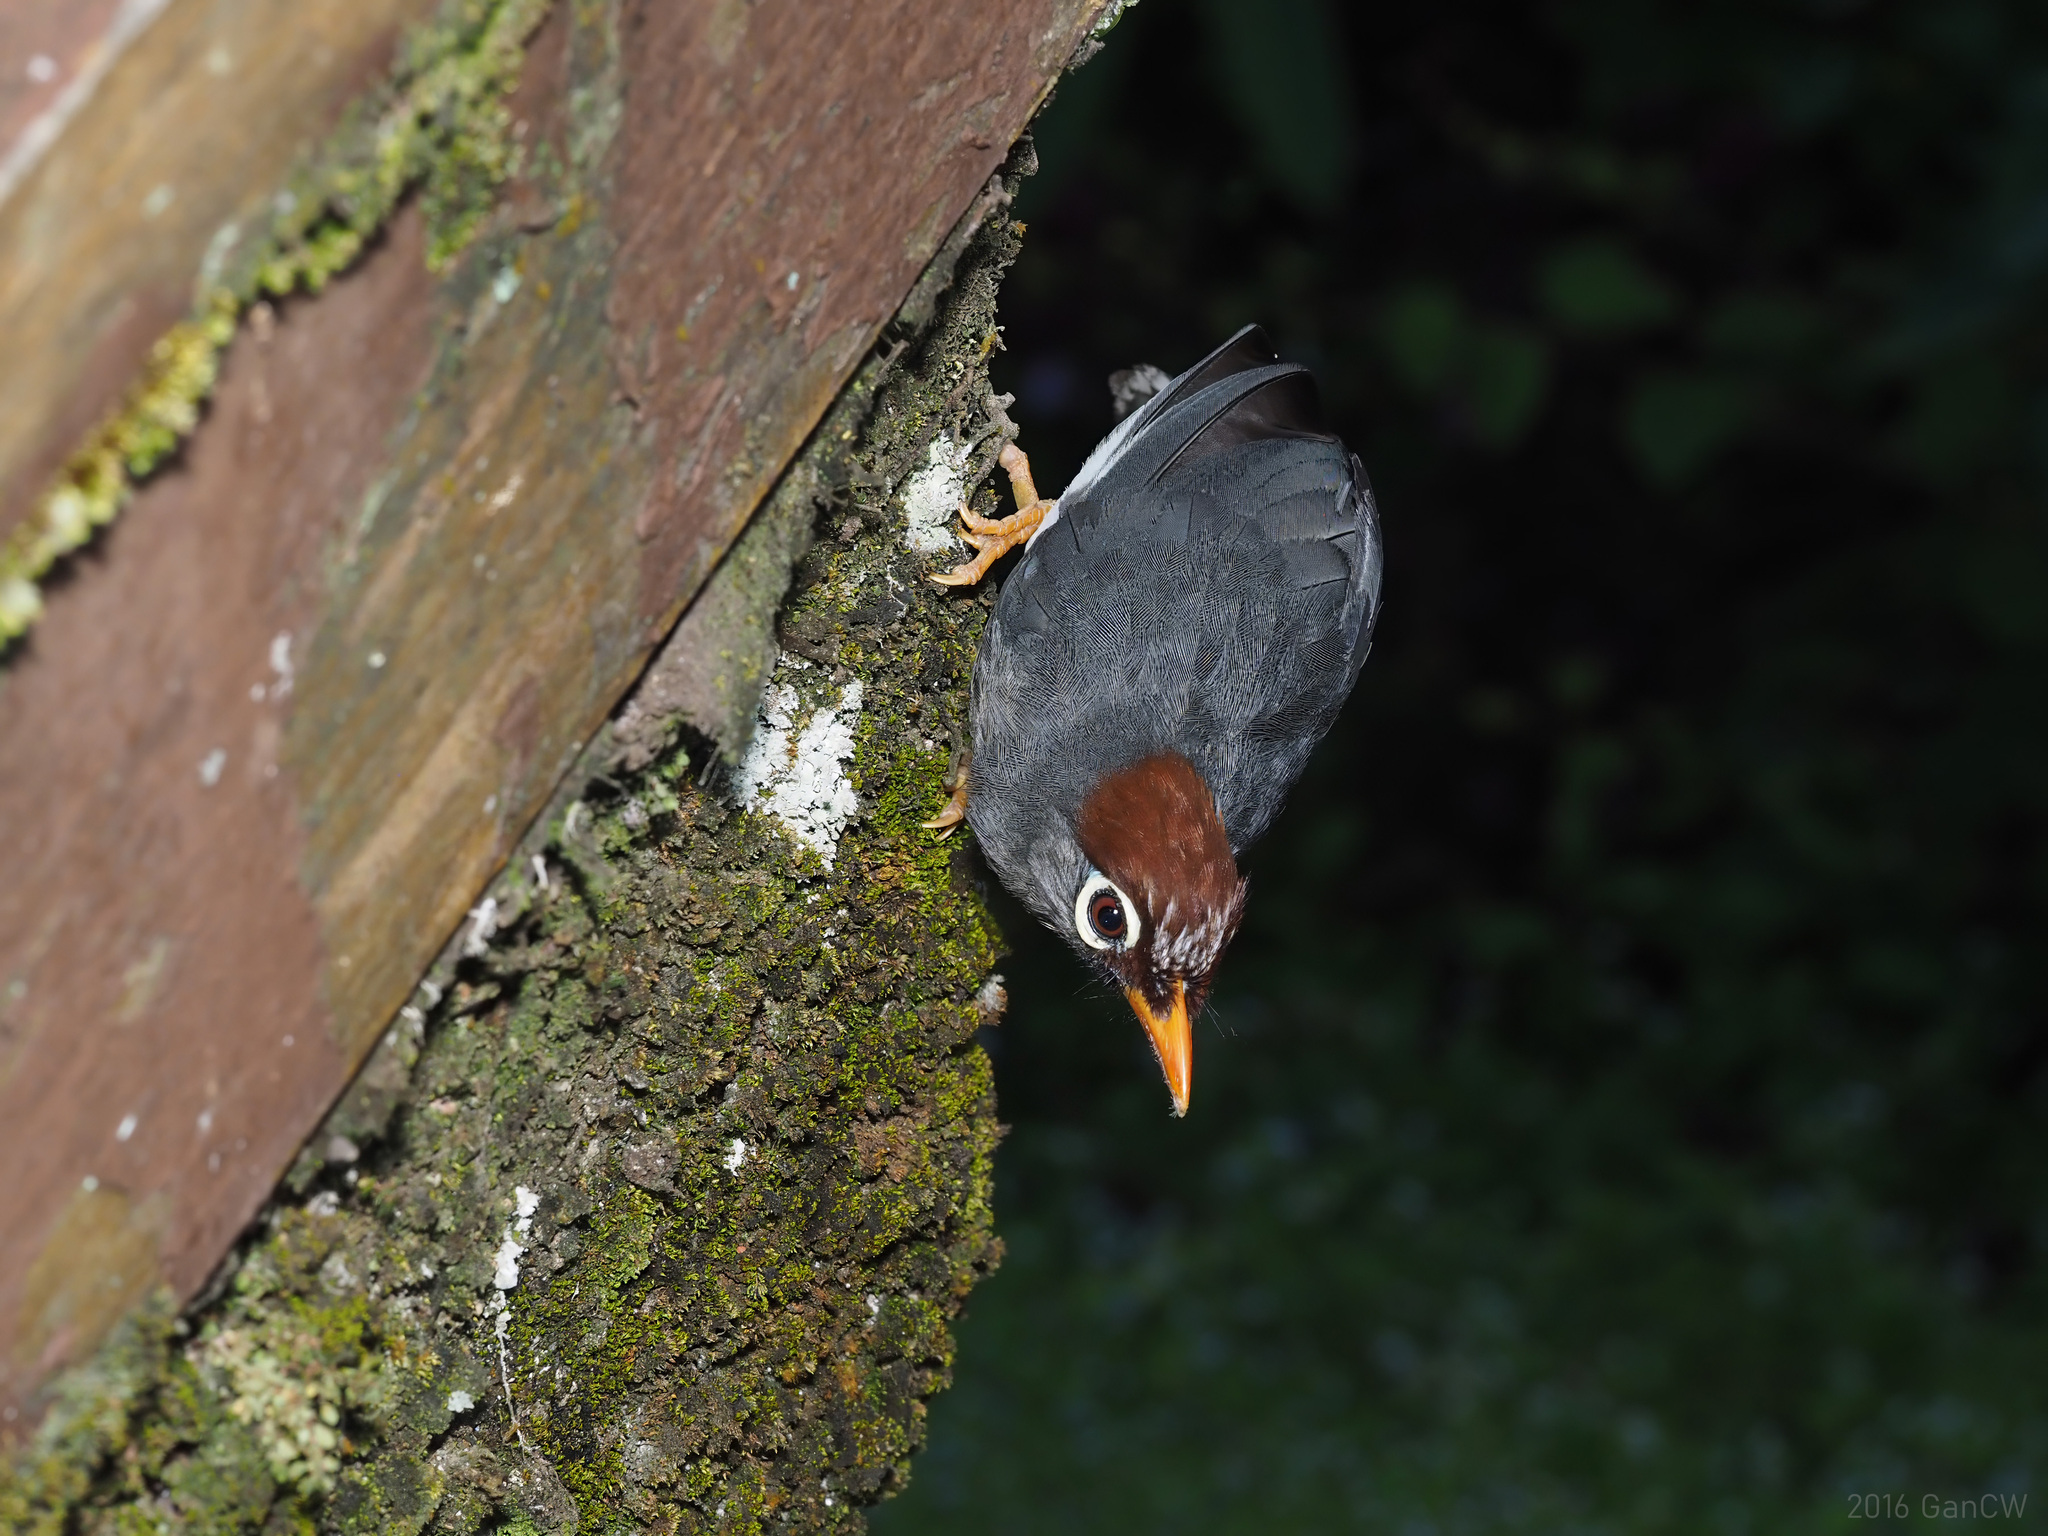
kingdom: Animalia
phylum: Chordata
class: Aves
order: Passeriformes
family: Leiothrichidae
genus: Garrulax
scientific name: Garrulax mitratus
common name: Chestnut-capped laughingthrush
